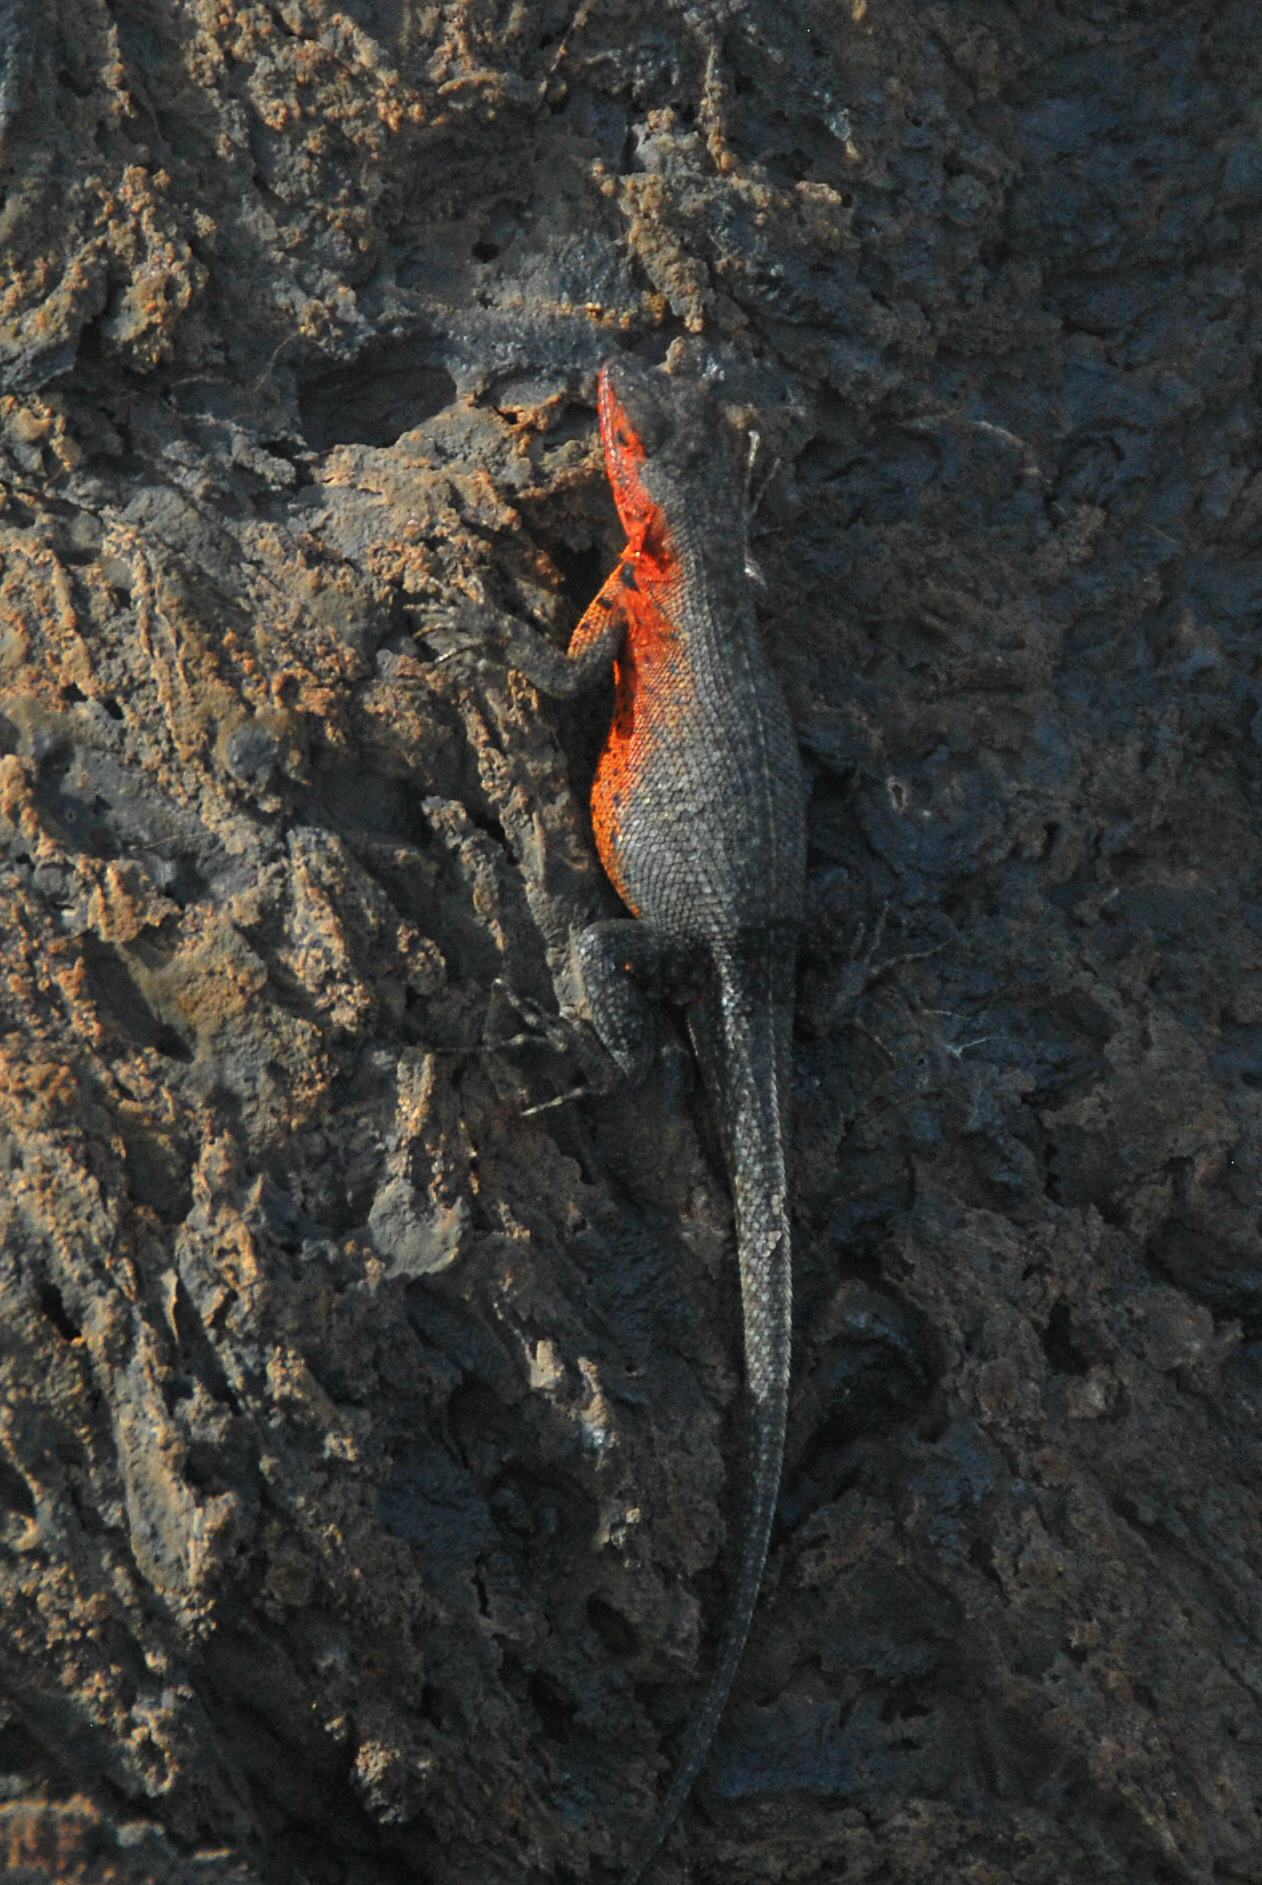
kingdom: Animalia
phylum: Chordata
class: Squamata
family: Tropiduridae
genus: Microlophus
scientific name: Microlophus albemarlensis
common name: Galapagos lava lizard
